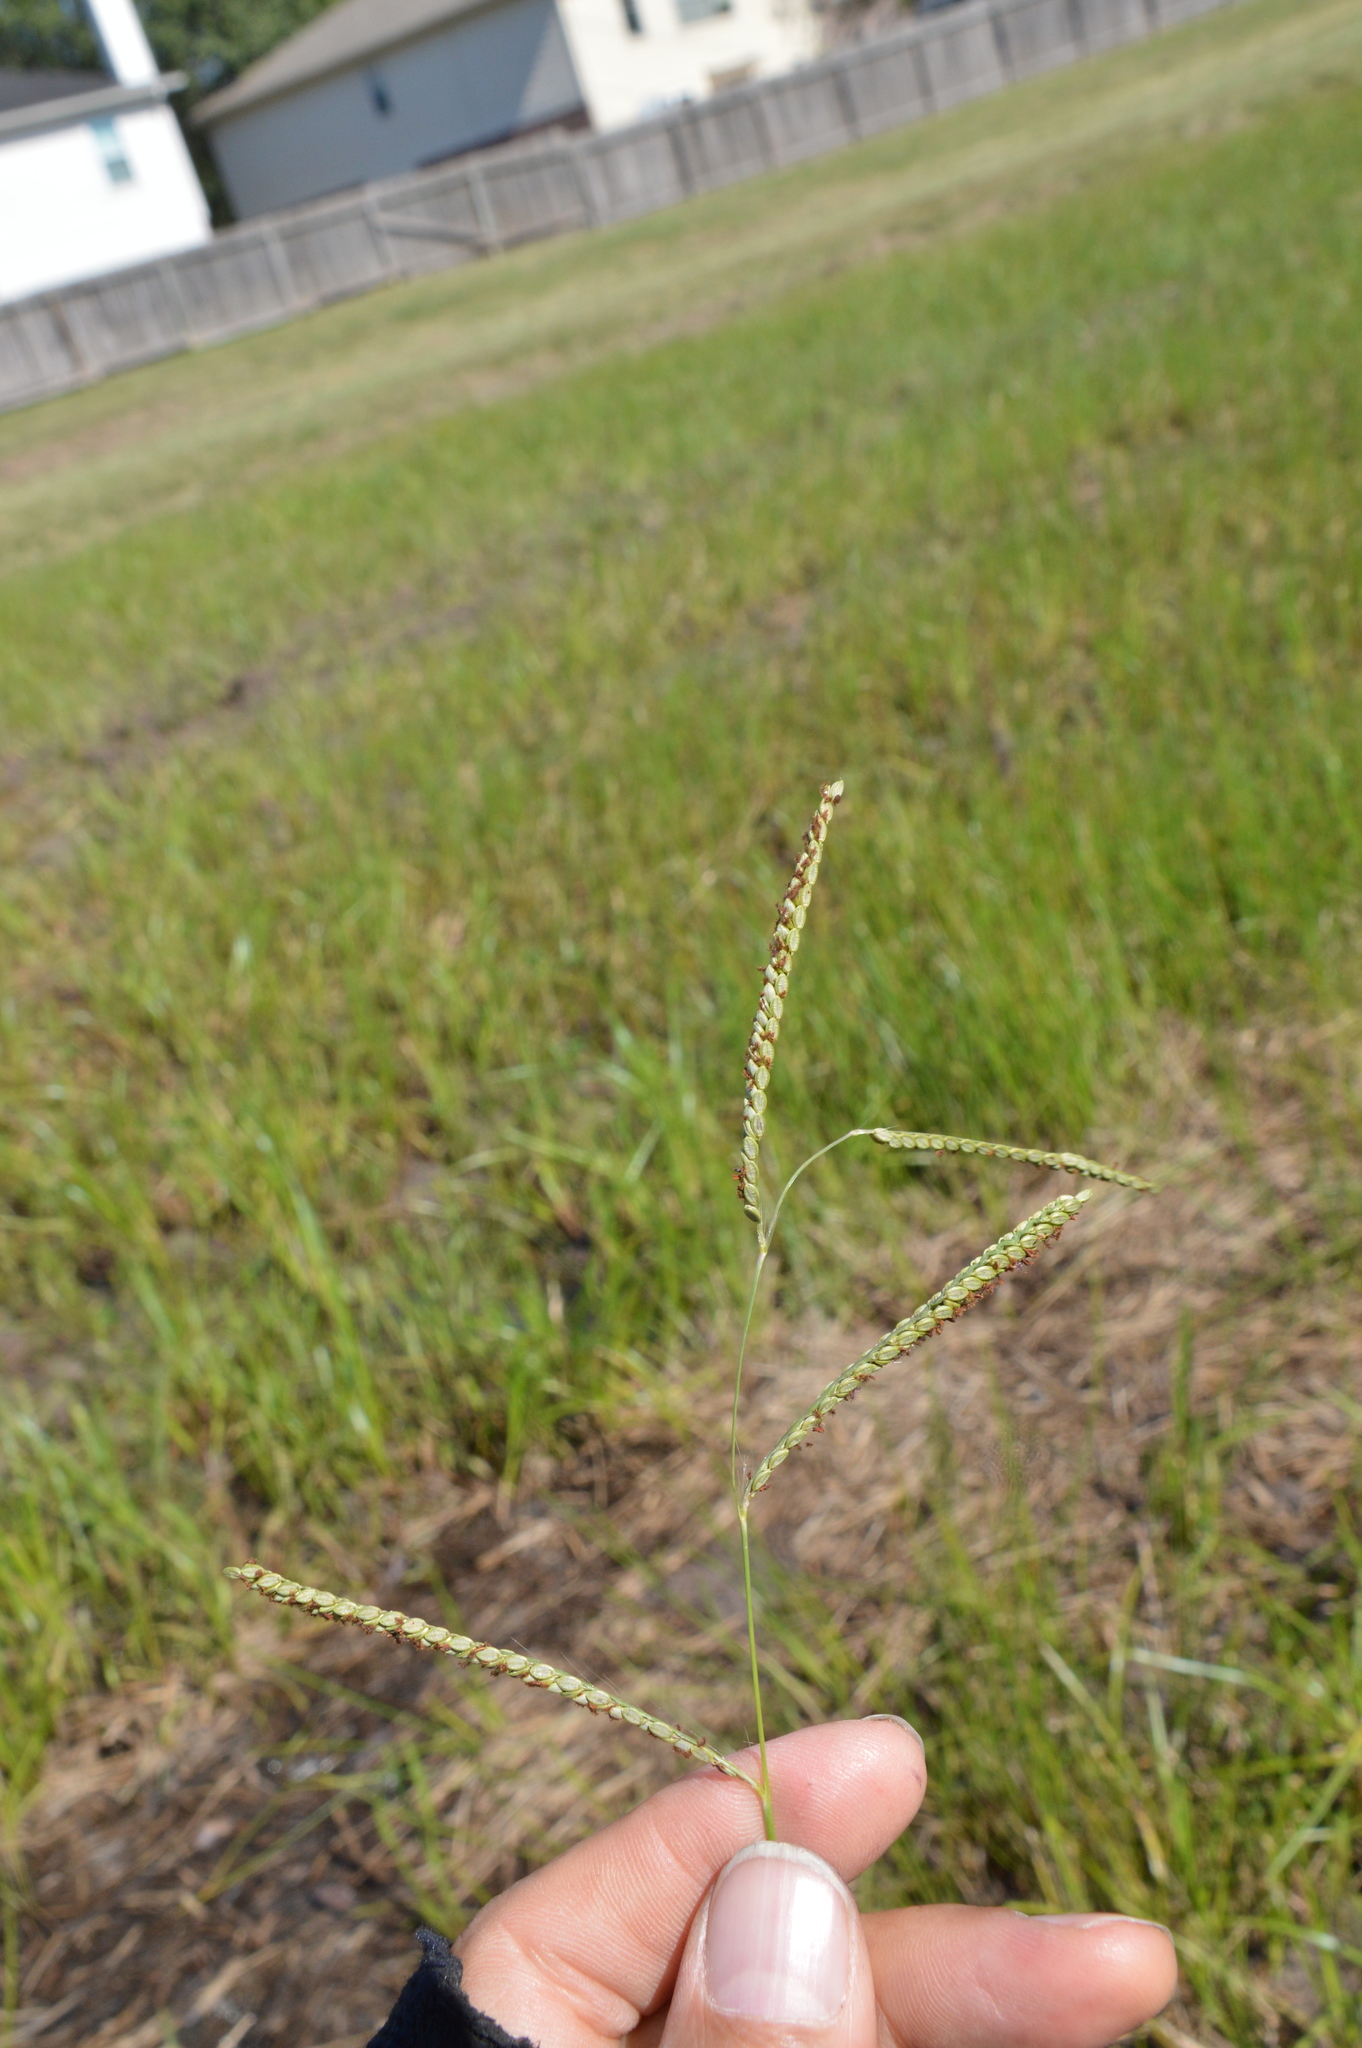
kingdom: Plantae
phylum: Tracheophyta
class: Liliopsida
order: Poales
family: Poaceae
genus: Paspalum
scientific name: Paspalum plicatulum
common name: Top paspalum
